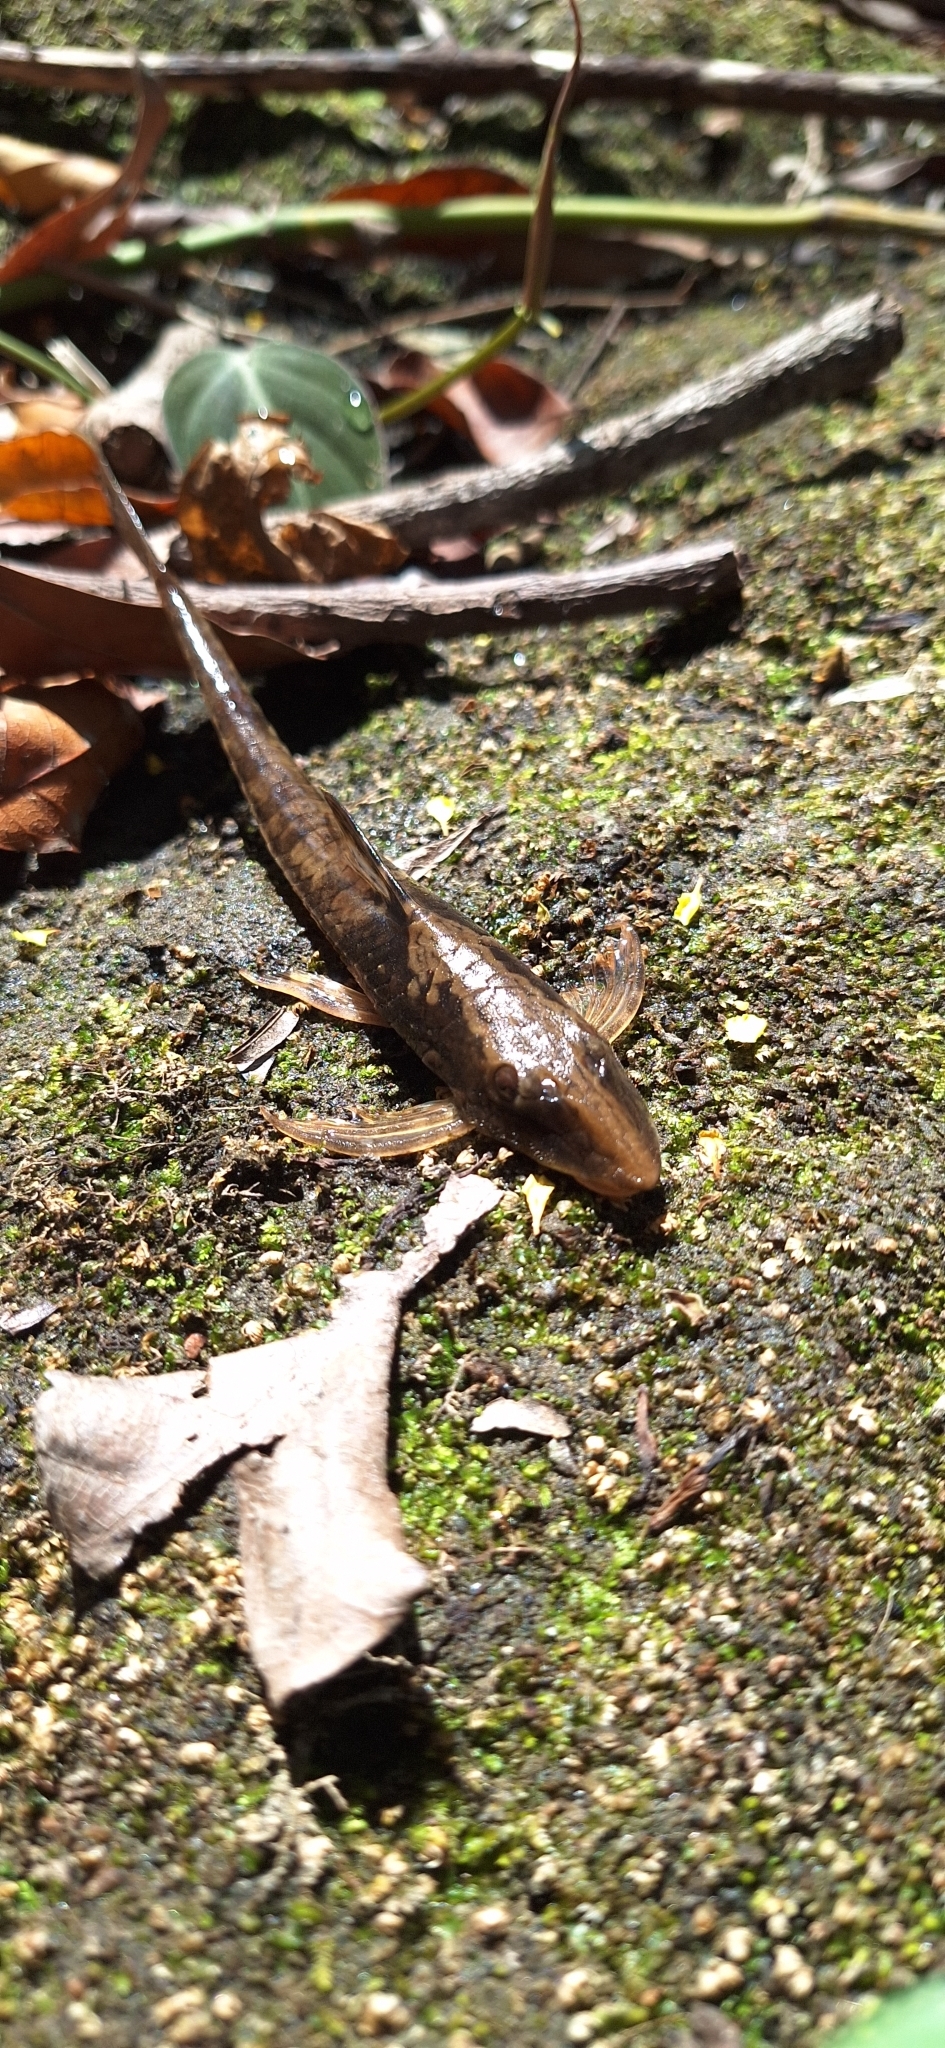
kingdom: Animalia
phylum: Chordata
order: Siluriformes
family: Loricariidae
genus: Sturisomatichthys
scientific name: Sturisomatichthys panamense
